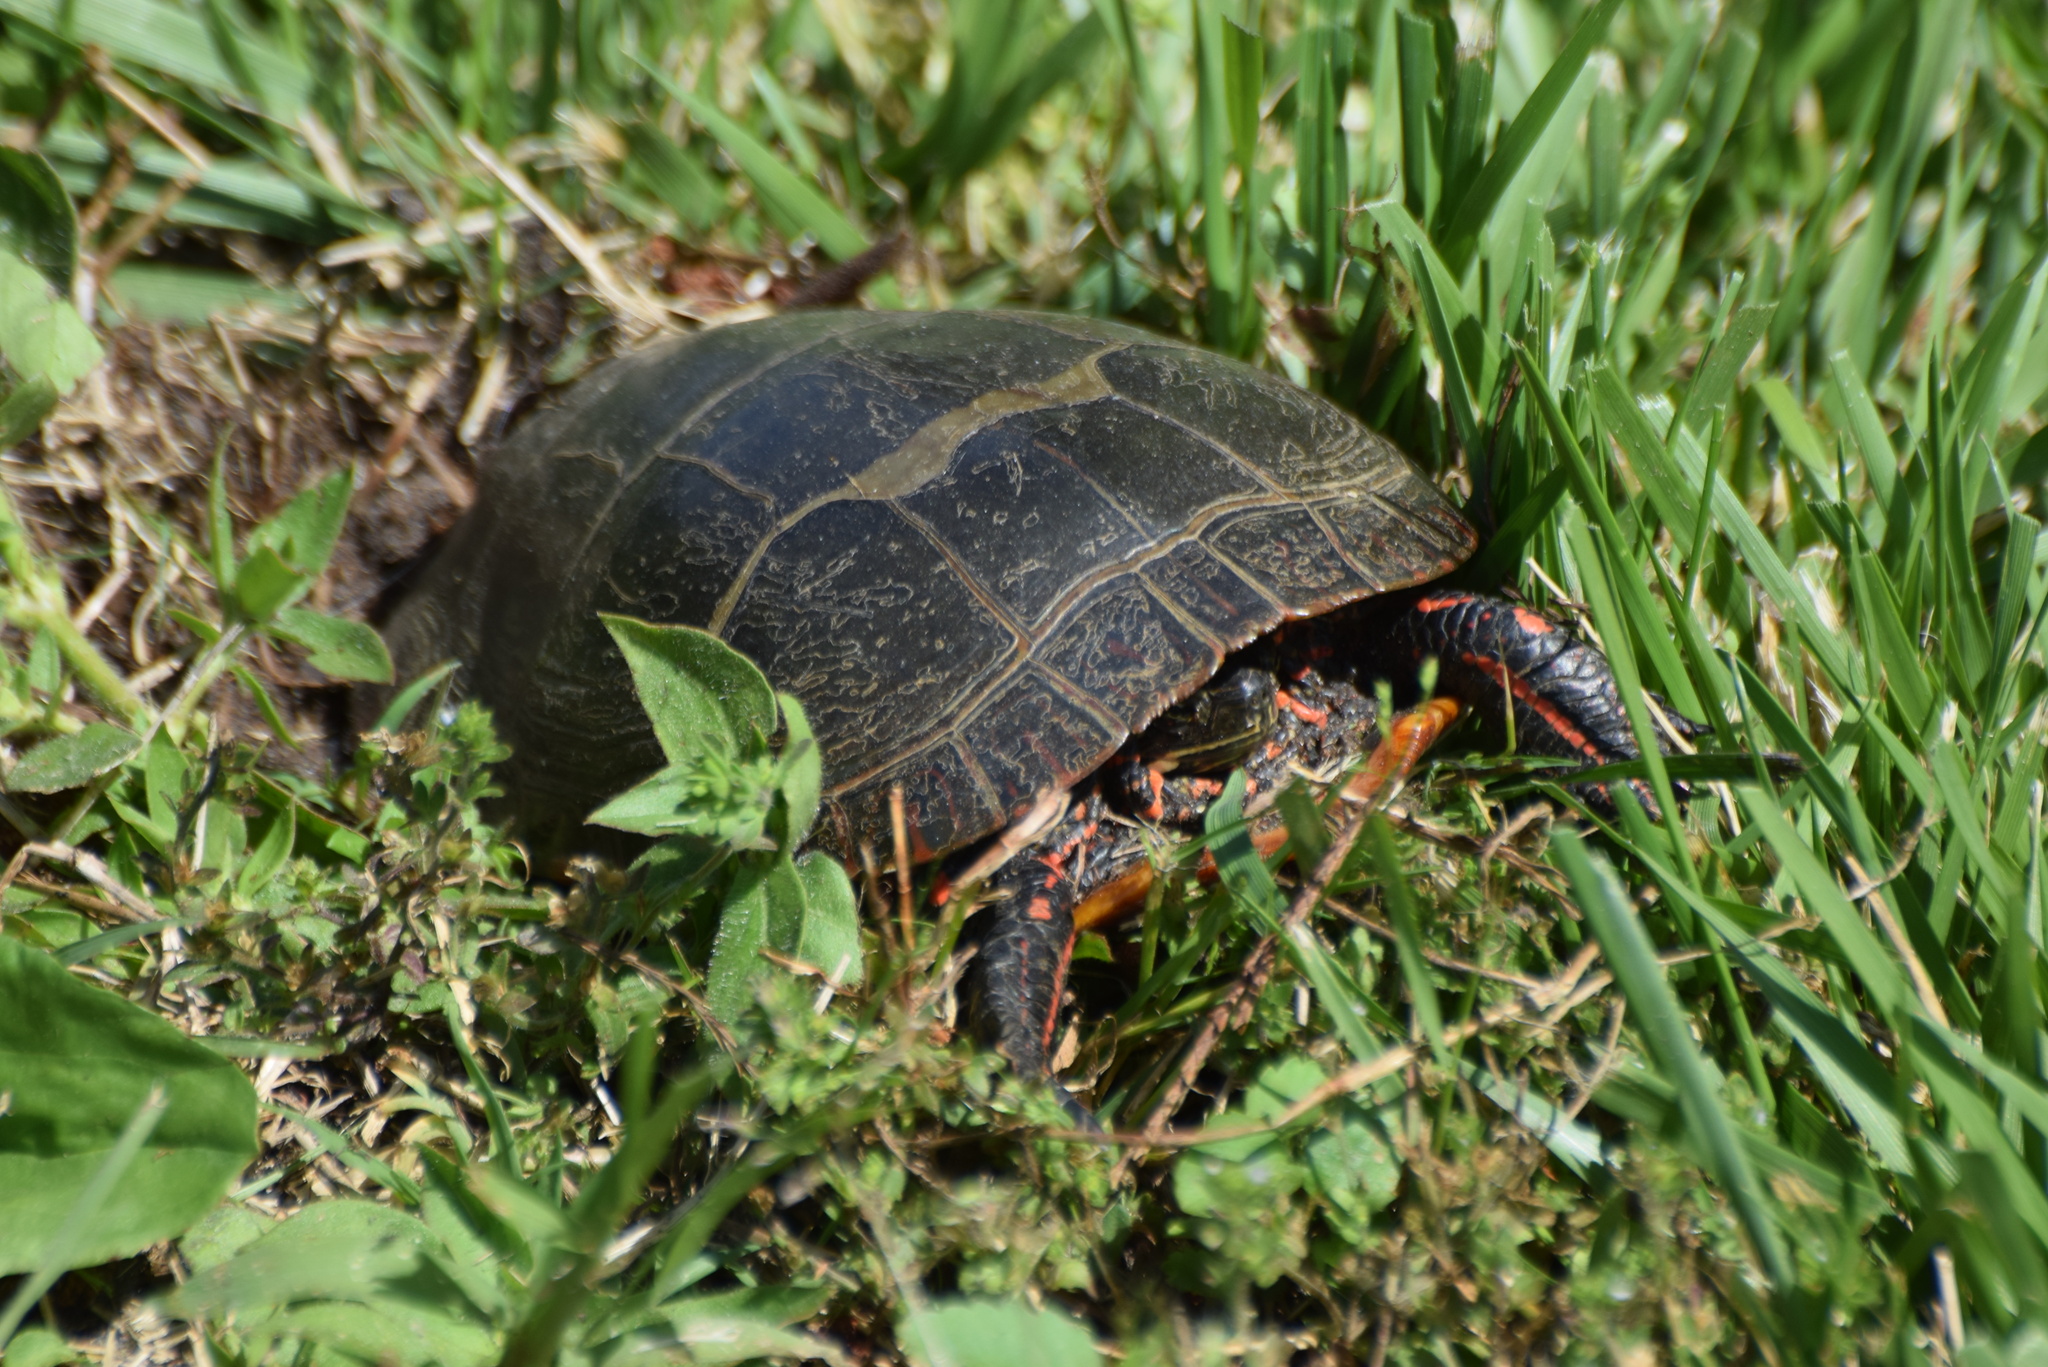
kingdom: Animalia
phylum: Chordata
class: Testudines
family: Emydidae
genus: Chrysemys
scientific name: Chrysemys picta
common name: Painted turtle
